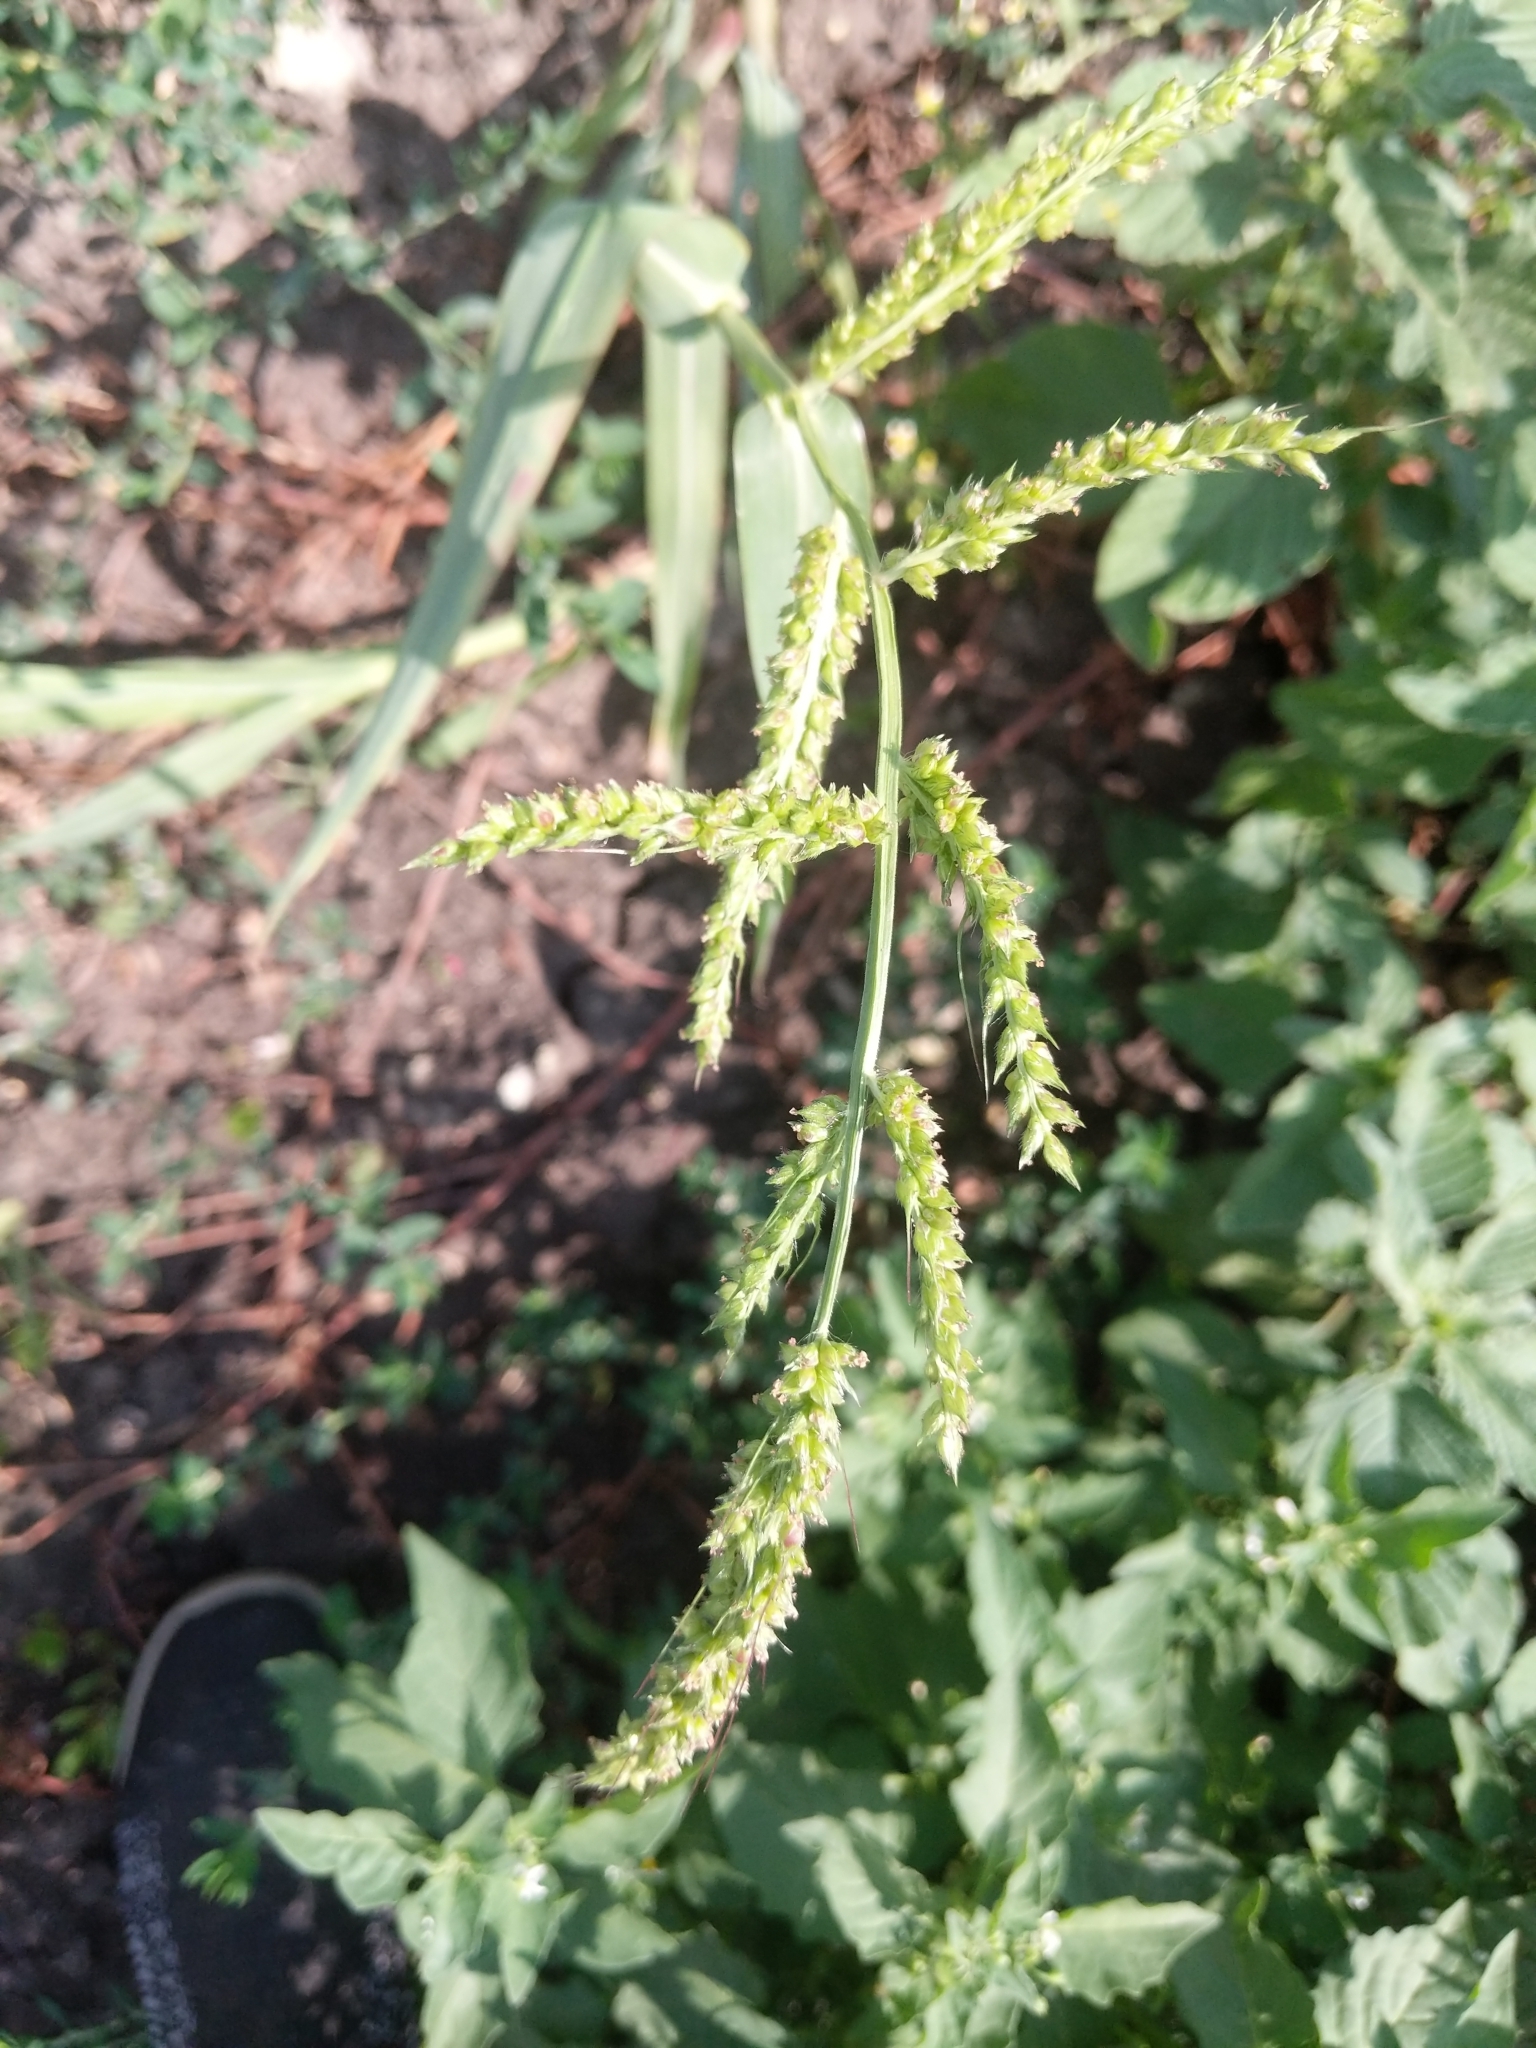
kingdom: Plantae
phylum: Tracheophyta
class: Liliopsida
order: Poales
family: Poaceae
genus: Echinochloa
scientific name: Echinochloa crus-galli
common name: Cockspur
